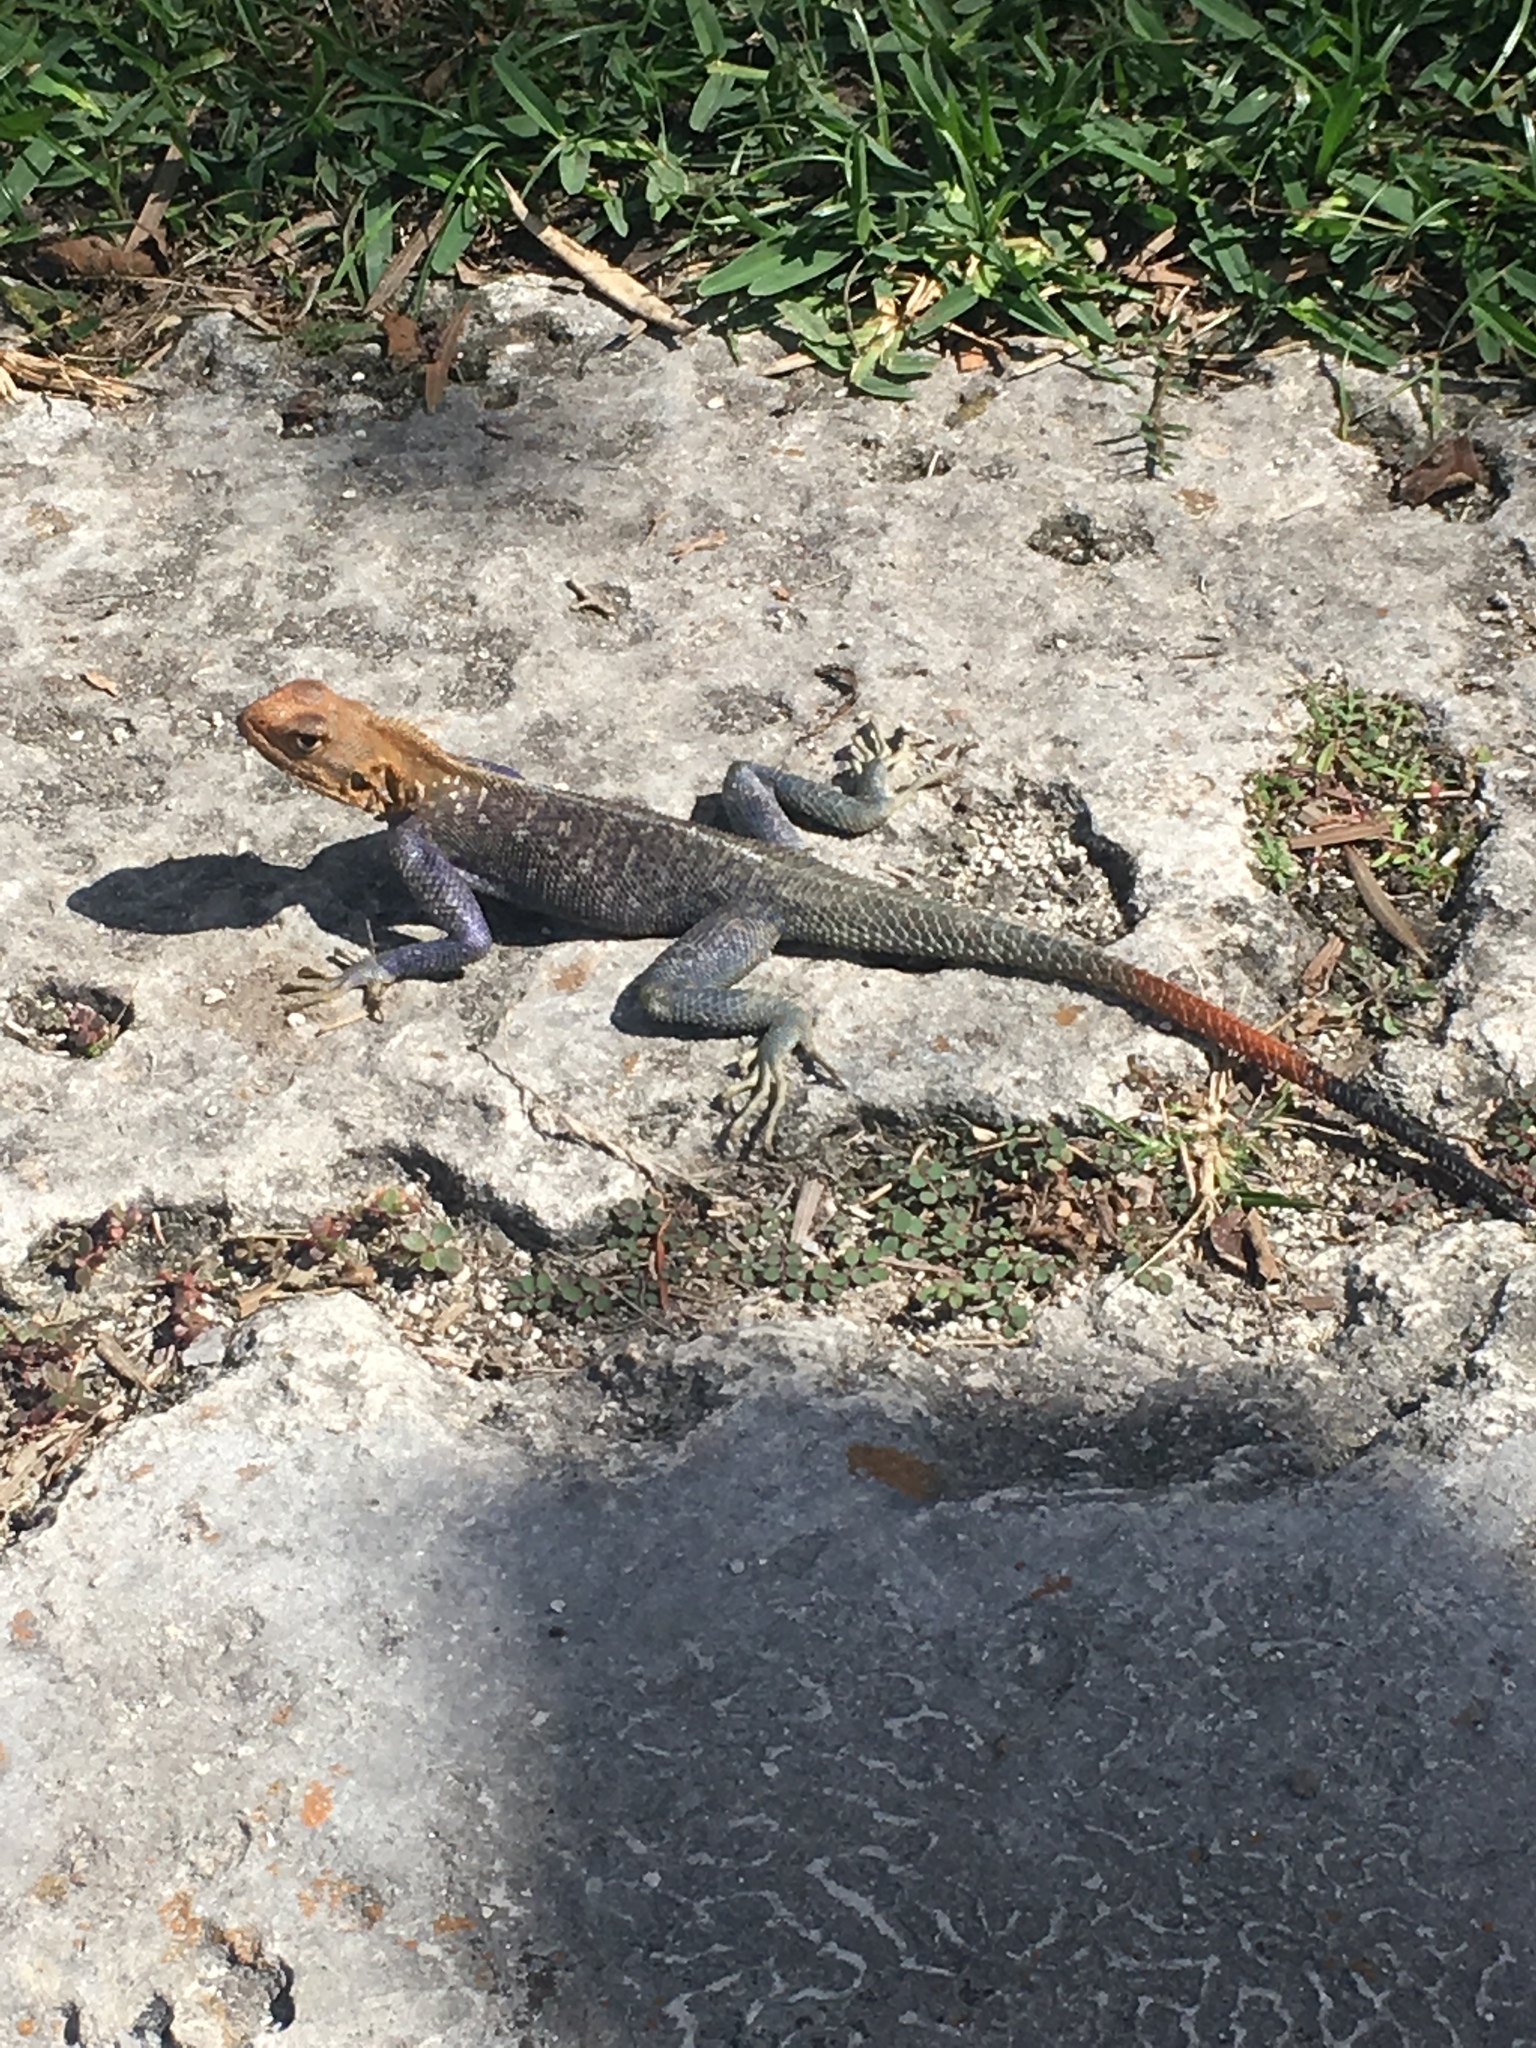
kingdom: Animalia
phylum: Chordata
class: Squamata
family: Agamidae
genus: Agama
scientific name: Agama picticauda
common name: Red-headed agama
